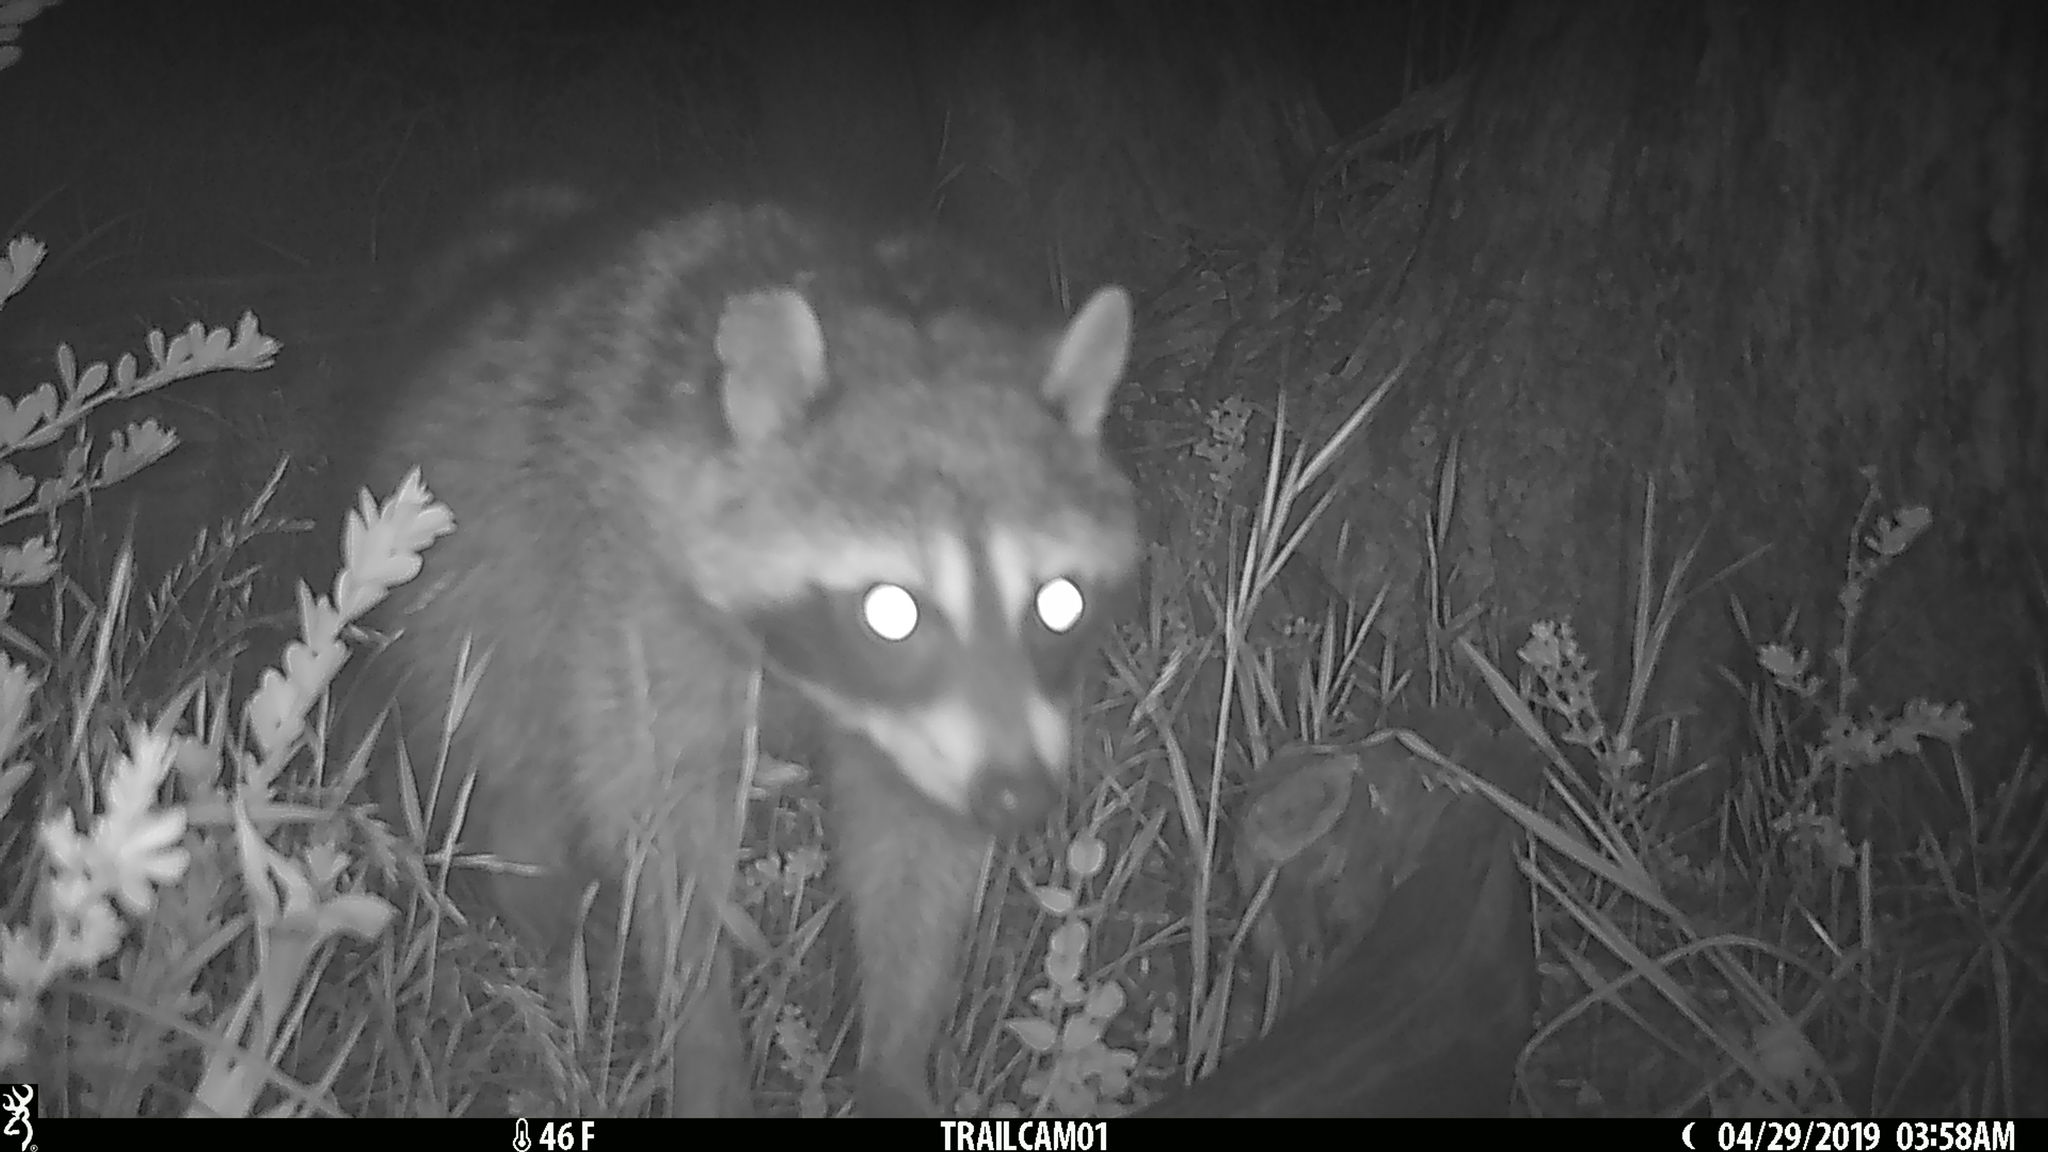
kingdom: Animalia
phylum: Chordata
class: Mammalia
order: Carnivora
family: Procyonidae
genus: Procyon
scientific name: Procyon lotor
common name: Raccoon
